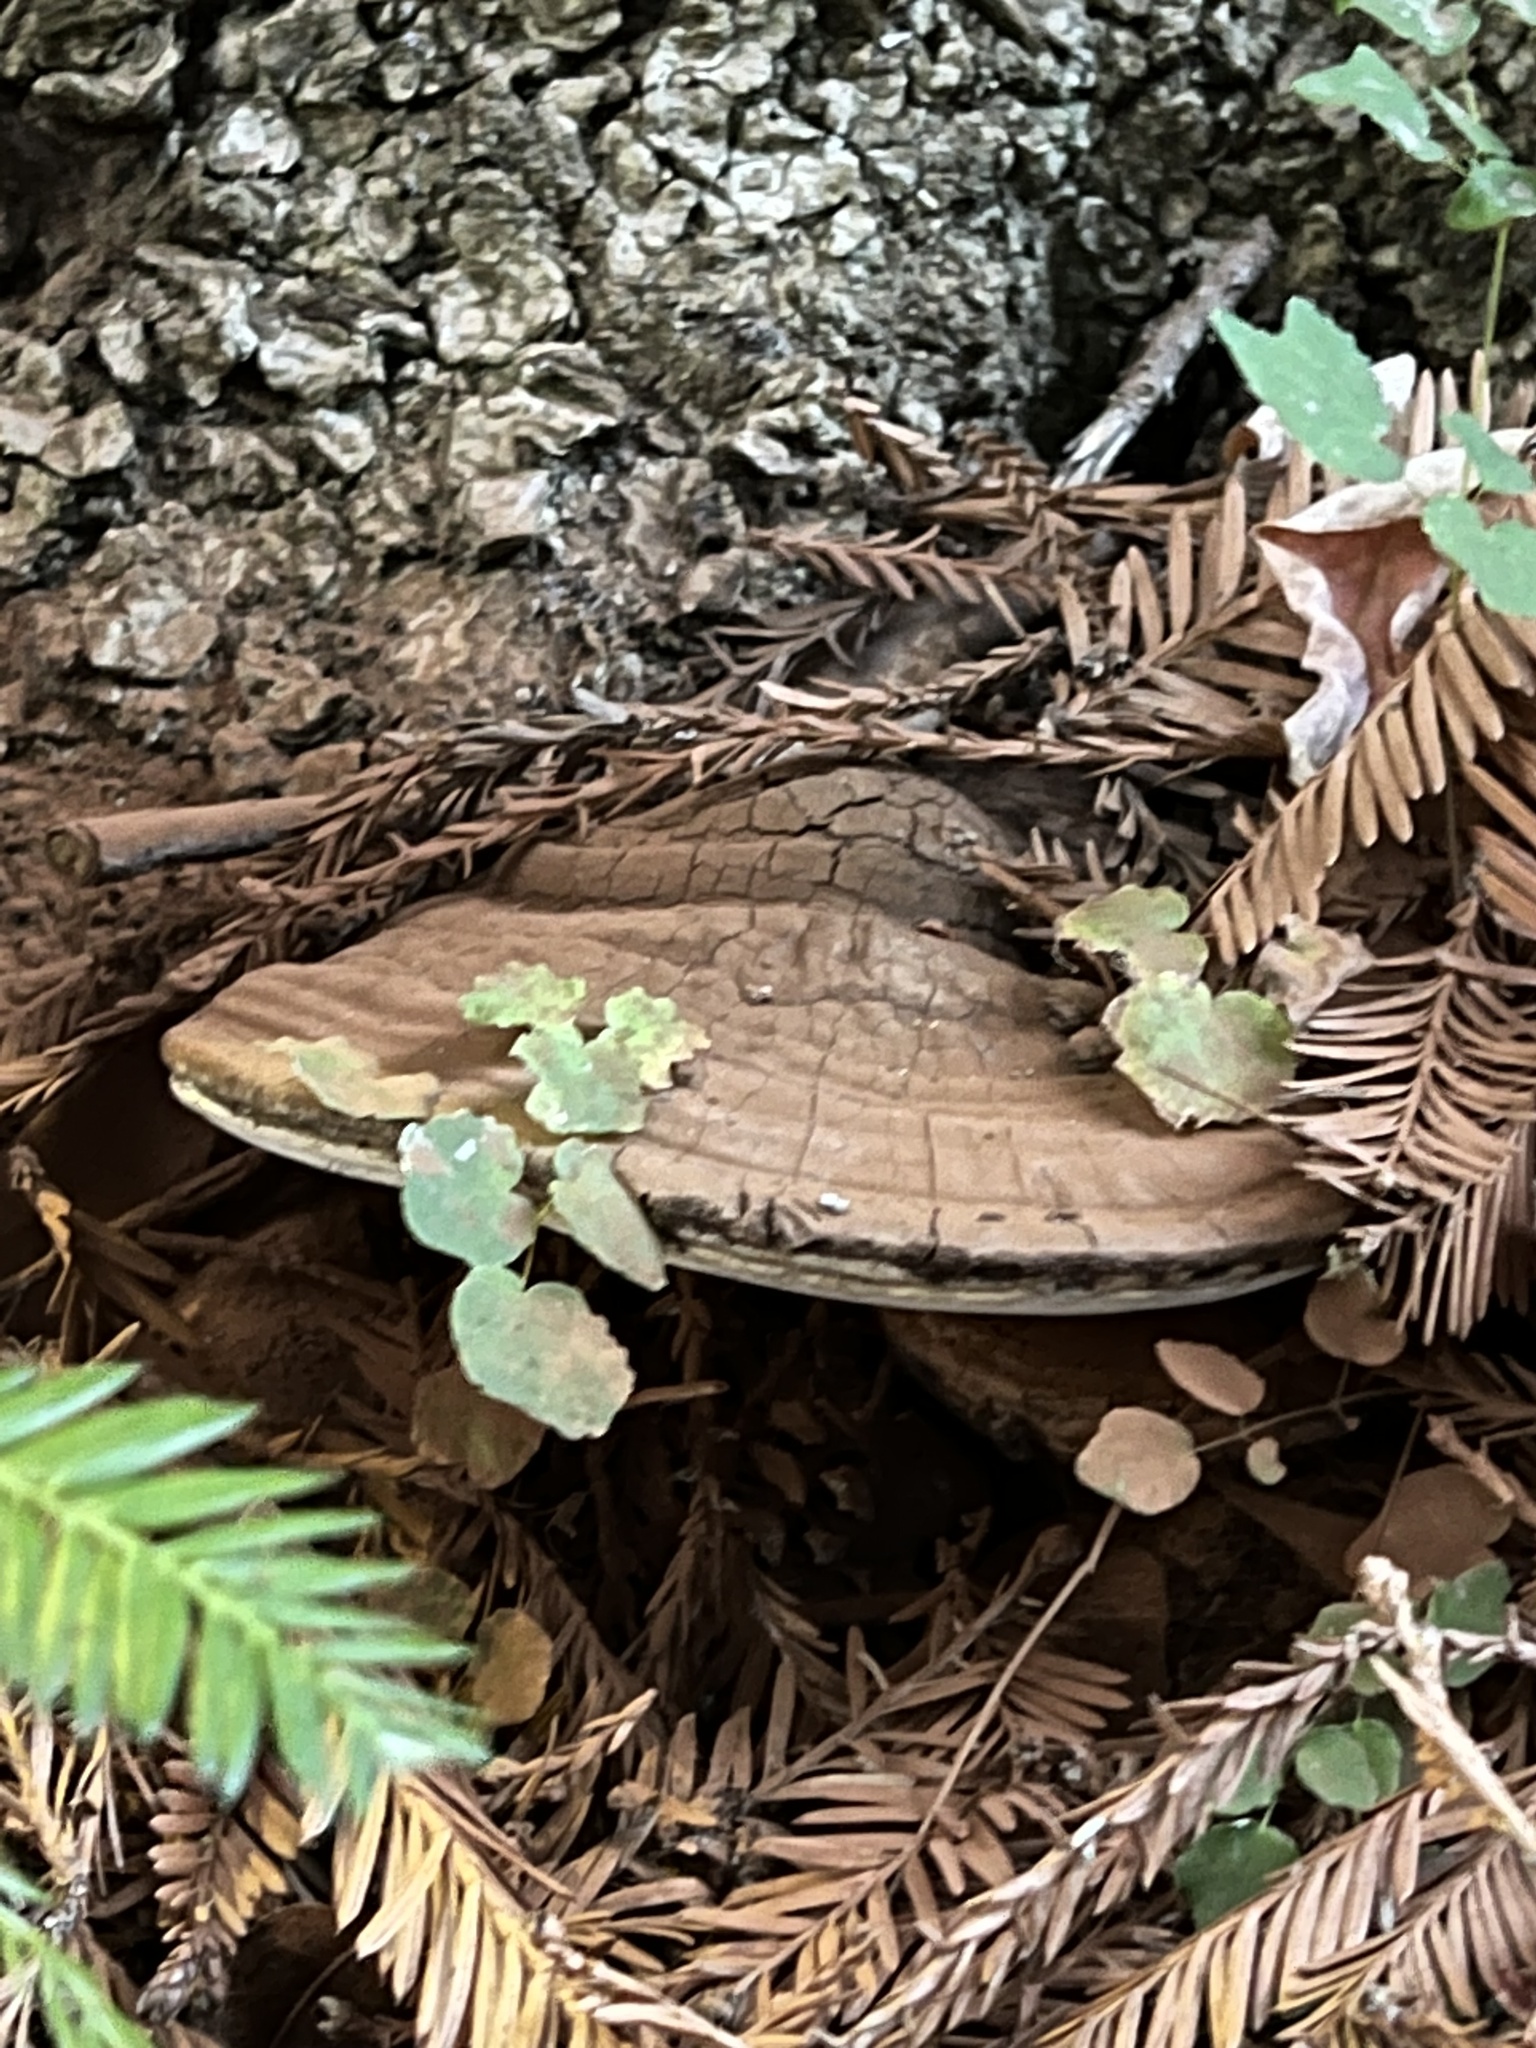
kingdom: Fungi
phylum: Basidiomycota
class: Agaricomycetes
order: Polyporales
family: Polyporaceae
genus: Ganoderma
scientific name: Ganoderma brownii
